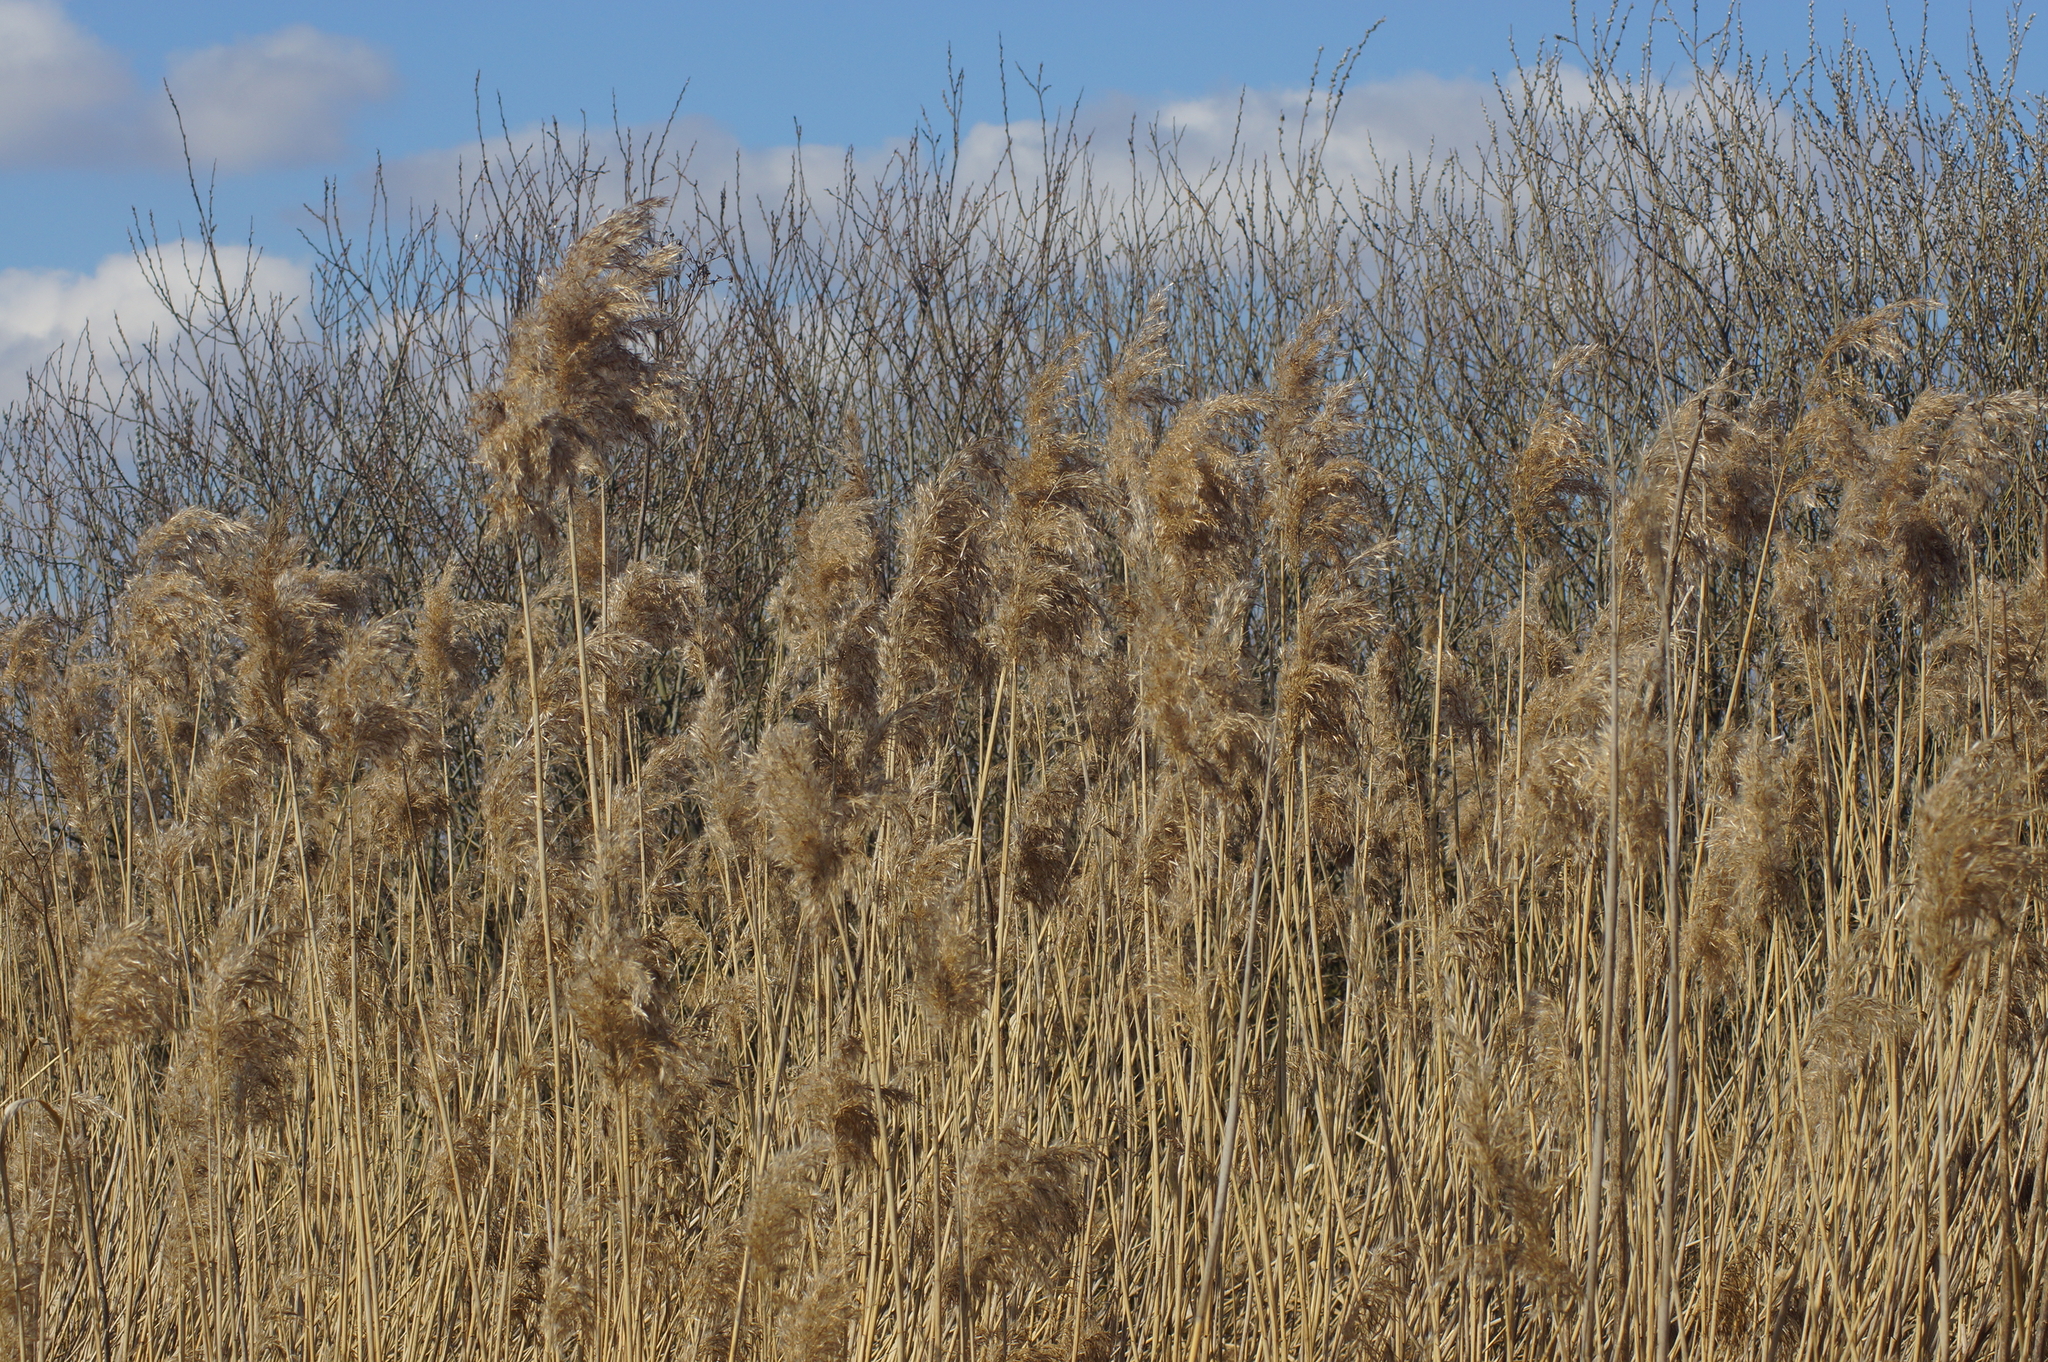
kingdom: Plantae
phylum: Tracheophyta
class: Liliopsida
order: Poales
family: Poaceae
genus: Phragmites
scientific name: Phragmites australis
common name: Common reed
